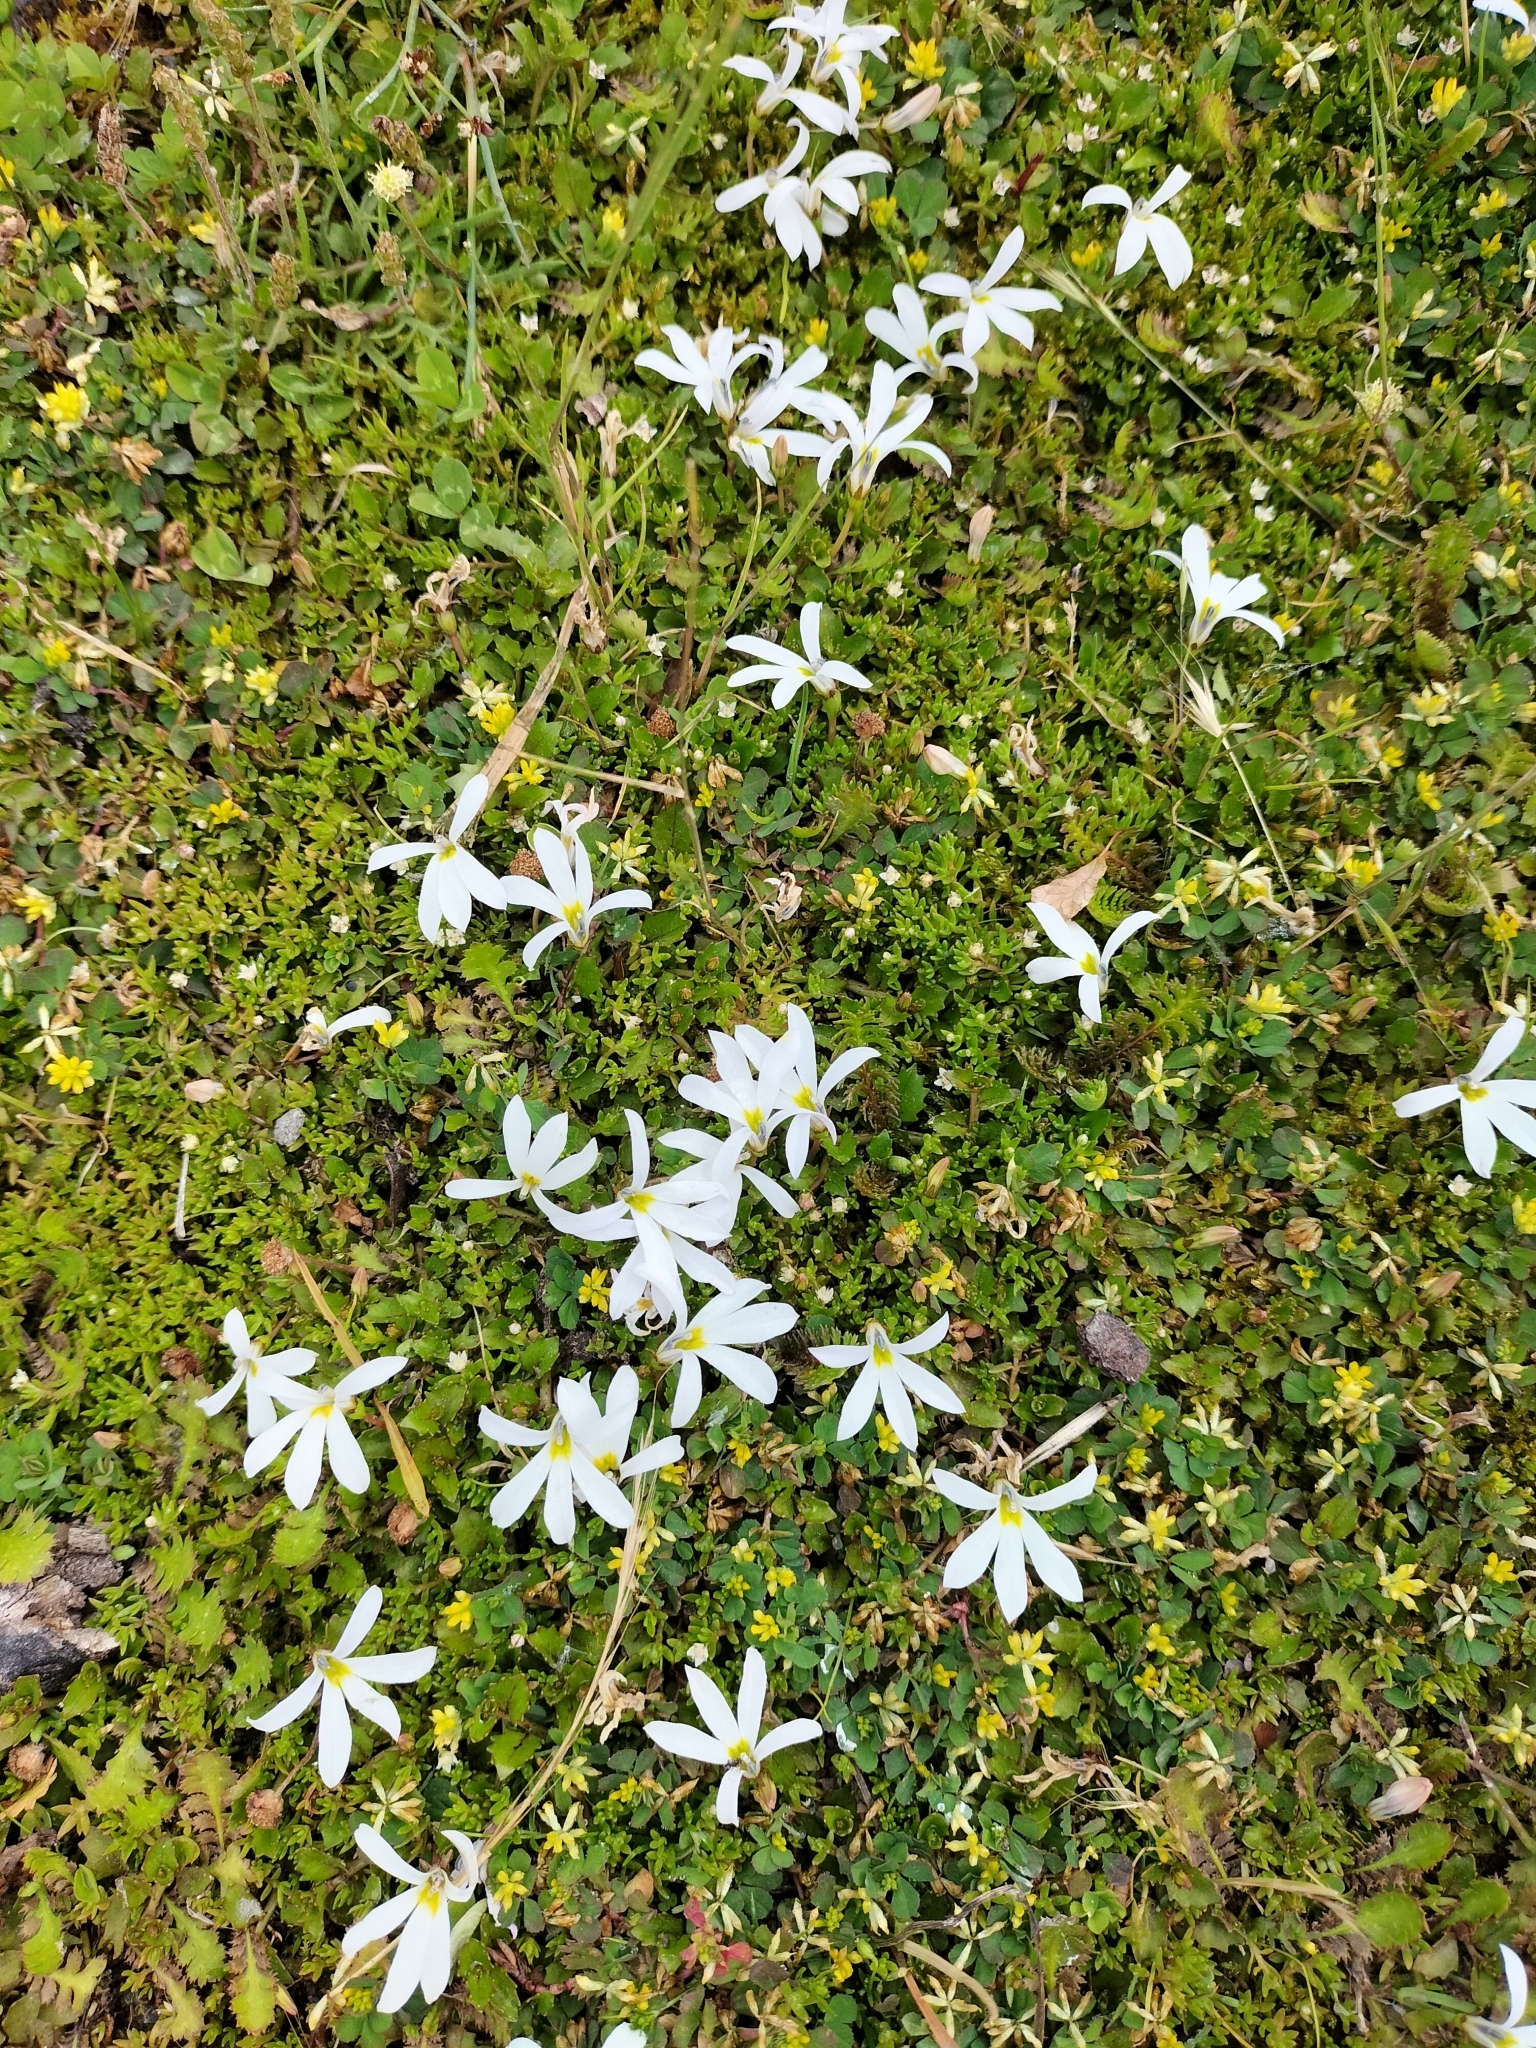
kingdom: Plantae
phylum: Tracheophyta
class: Magnoliopsida
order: Asterales
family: Campanulaceae
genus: Lobelia
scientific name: Lobelia angulata
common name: Lawn lobelia
